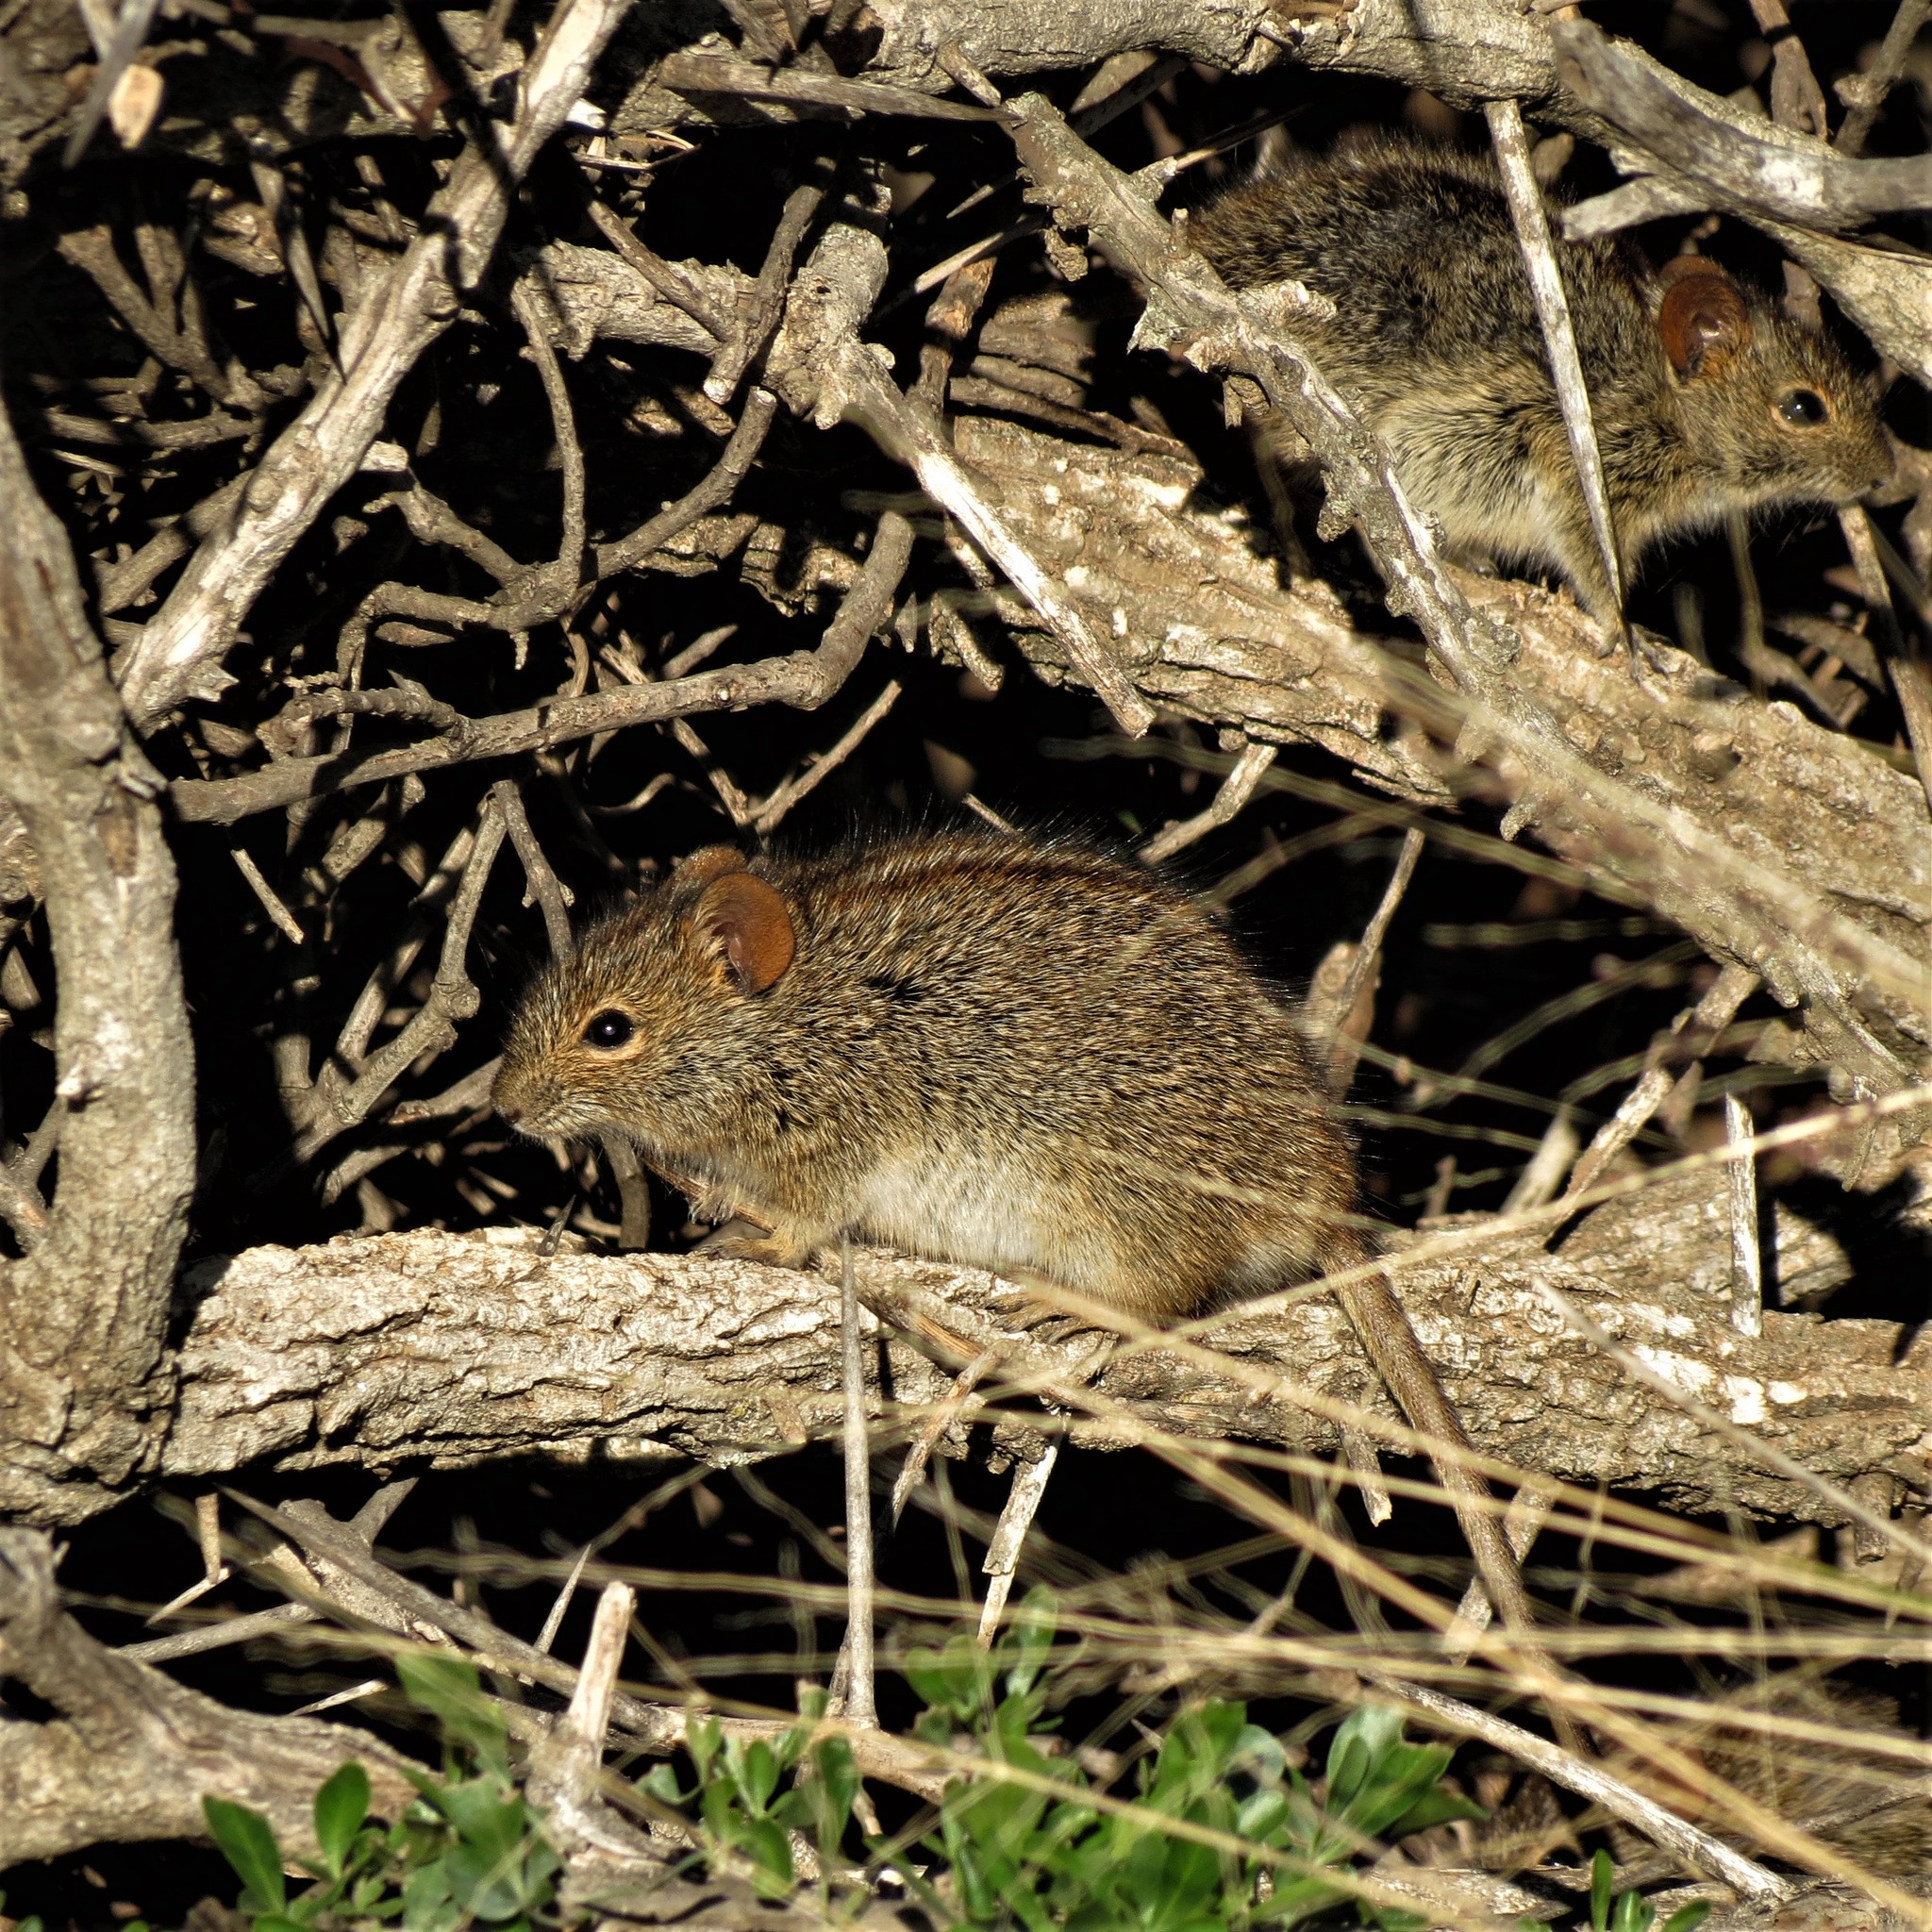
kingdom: Animalia
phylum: Chordata
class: Mammalia
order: Rodentia
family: Muridae
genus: Rhabdomys
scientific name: Rhabdomys pumilio
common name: Xeric four-striped grass rat
